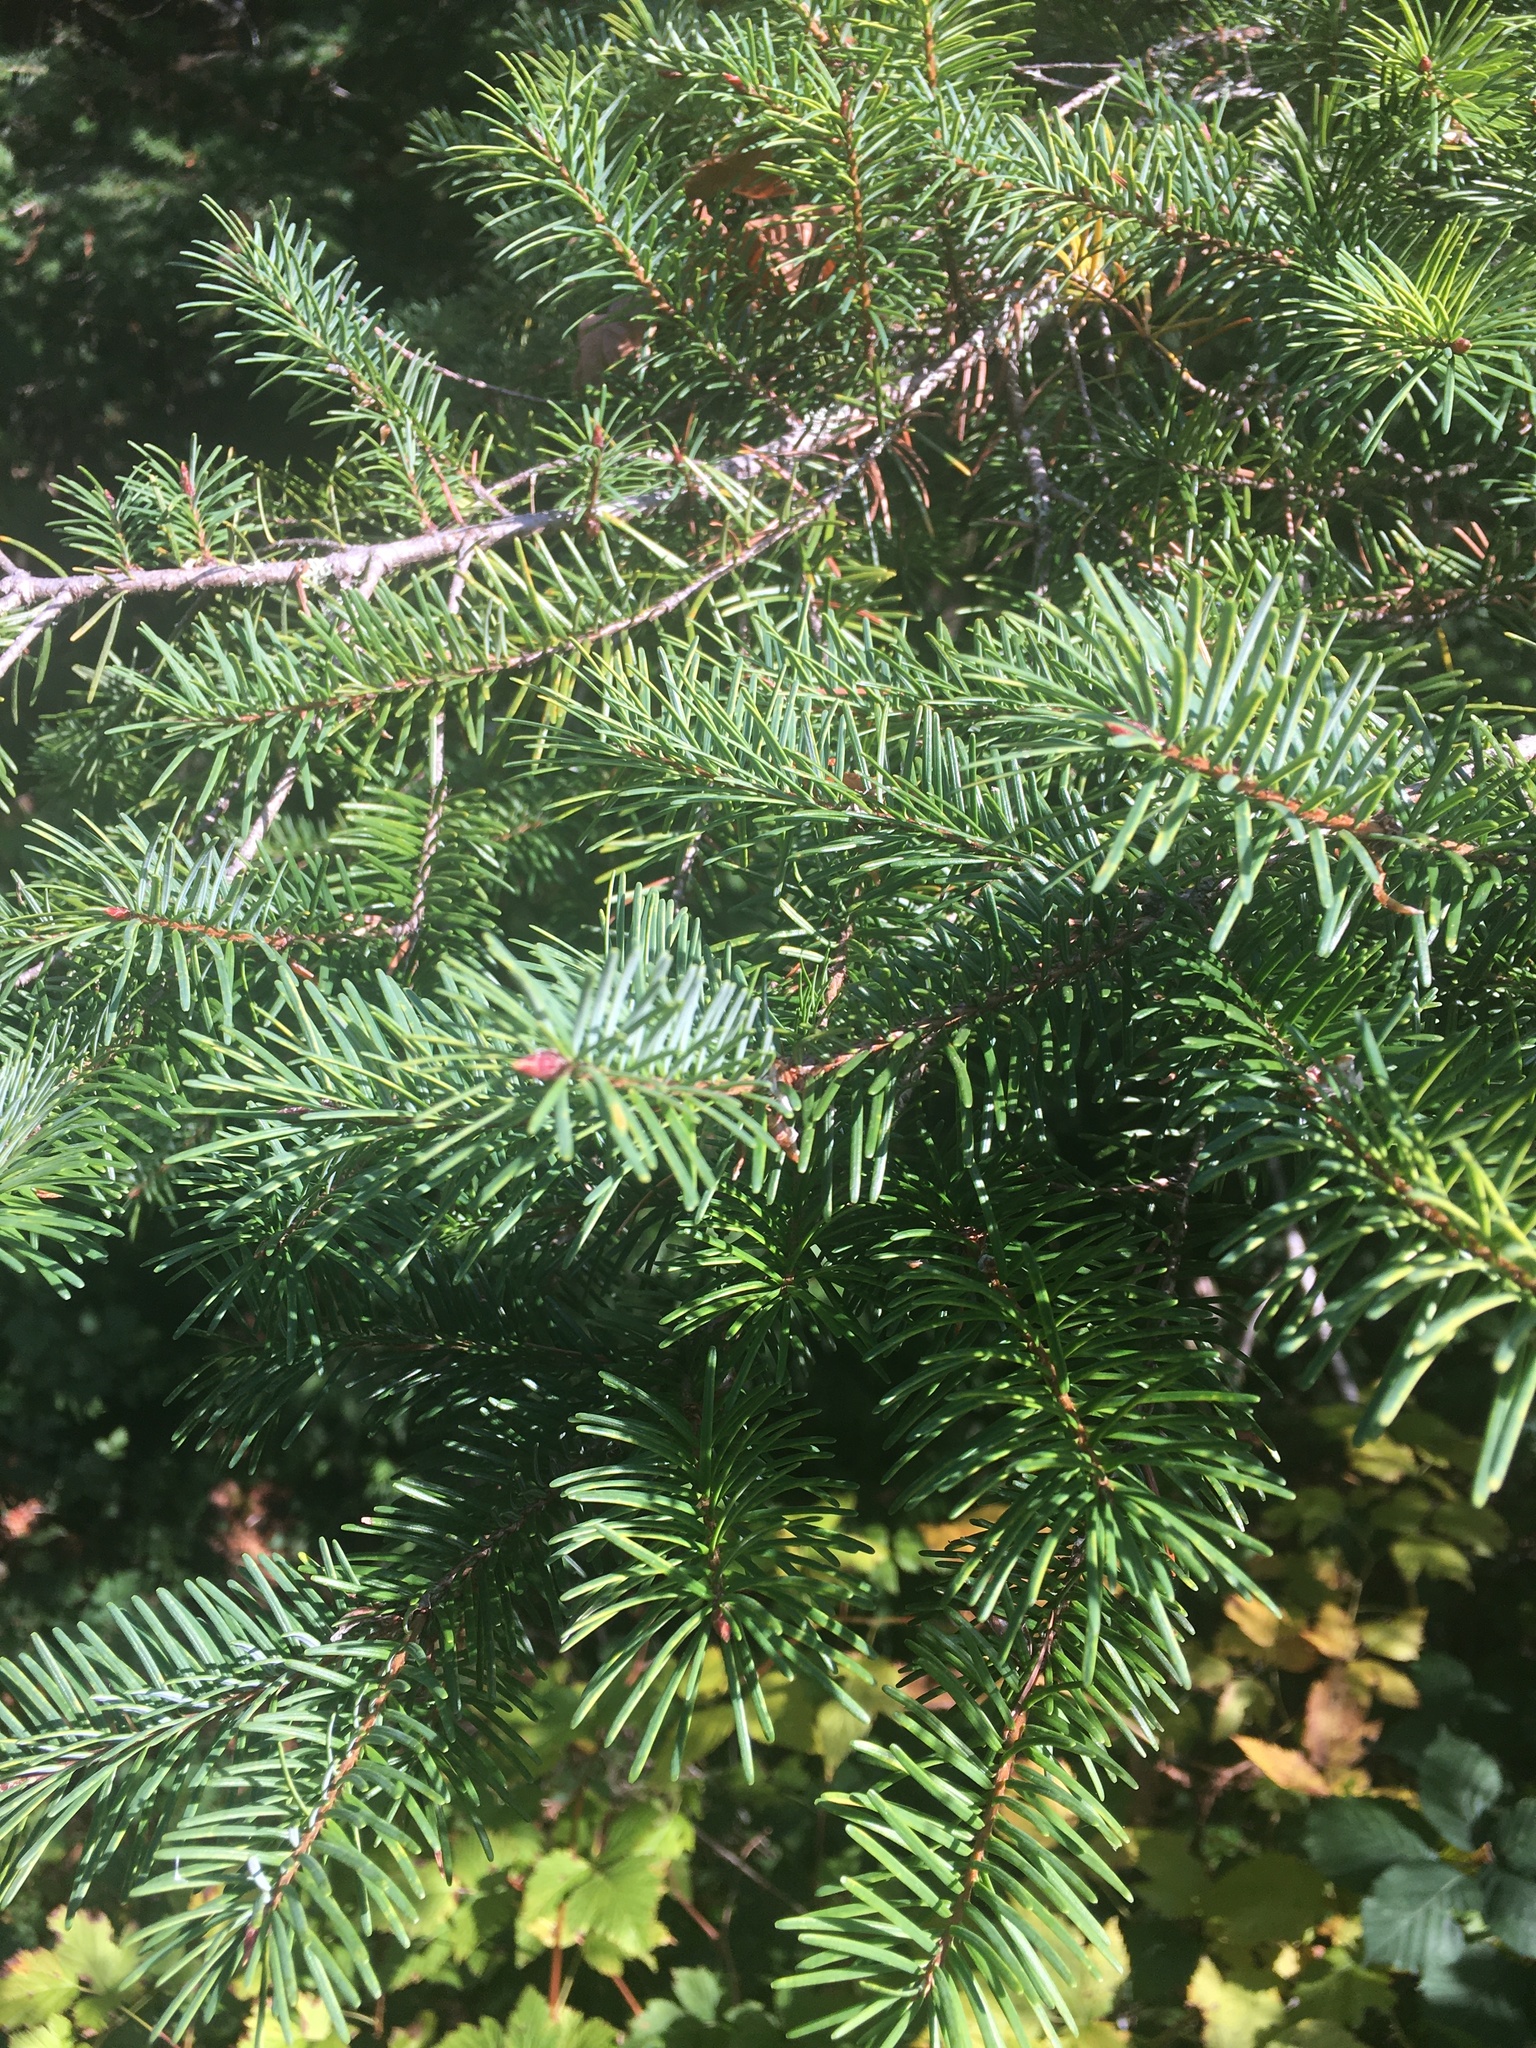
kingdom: Plantae
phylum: Tracheophyta
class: Pinopsida
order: Pinales
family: Pinaceae
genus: Pseudotsuga
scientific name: Pseudotsuga menziesii
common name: Douglas fir
